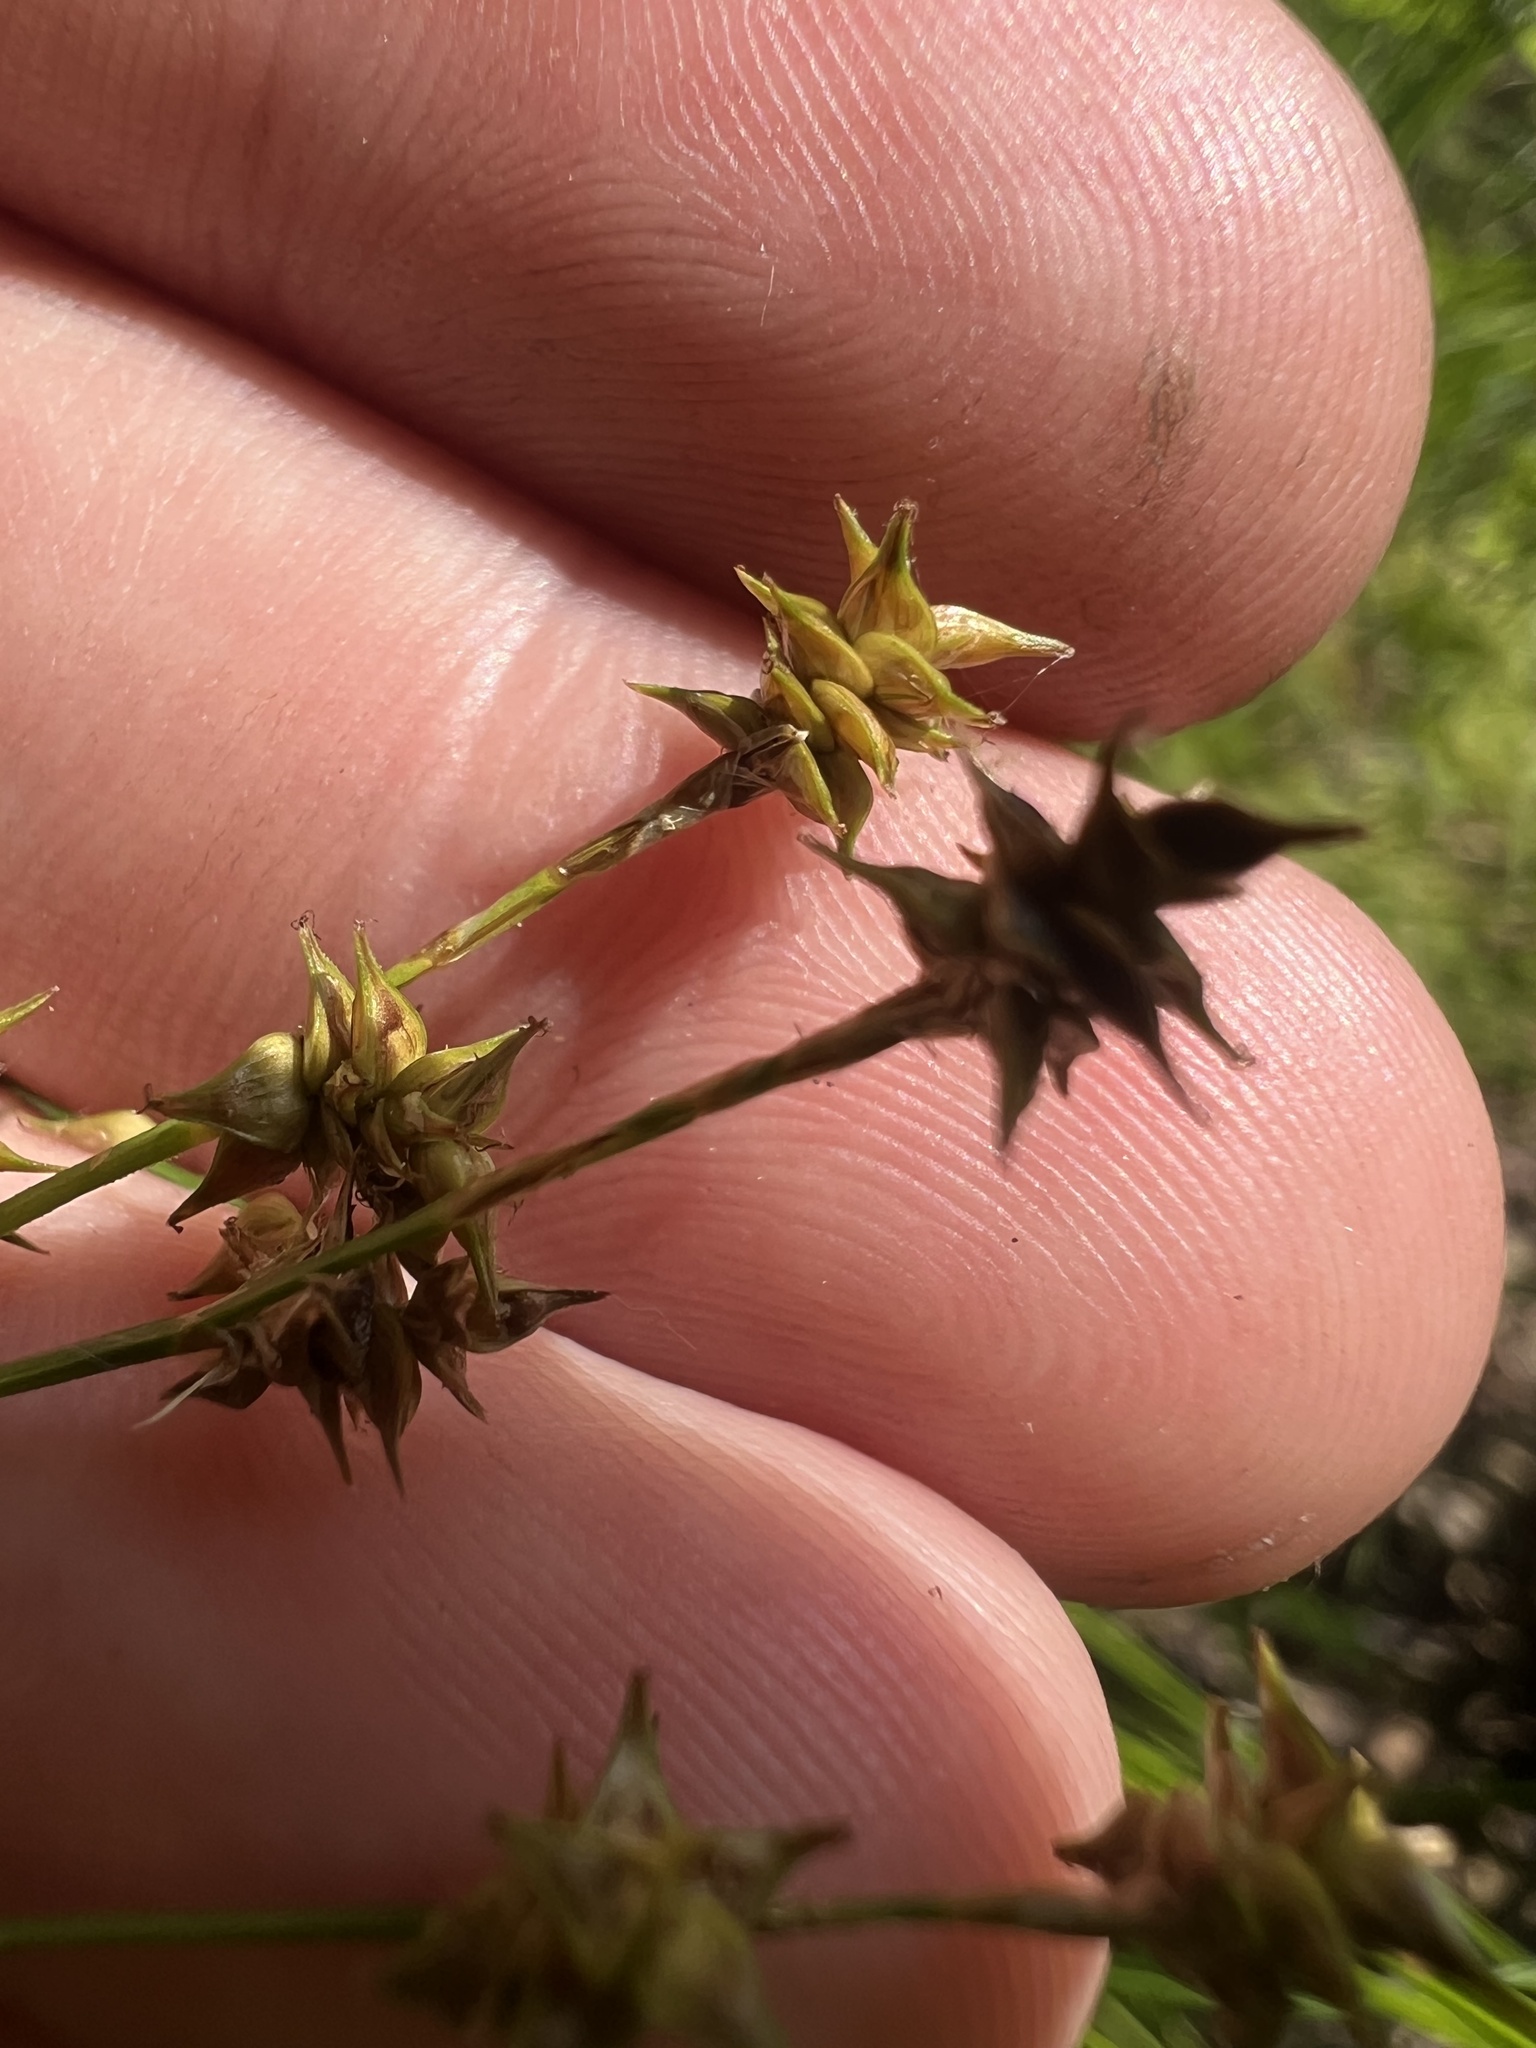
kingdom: Plantae
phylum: Tracheophyta
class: Liliopsida
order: Poales
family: Cyperaceae
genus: Carex
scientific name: Carex atlantica
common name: Atlantic sedge
